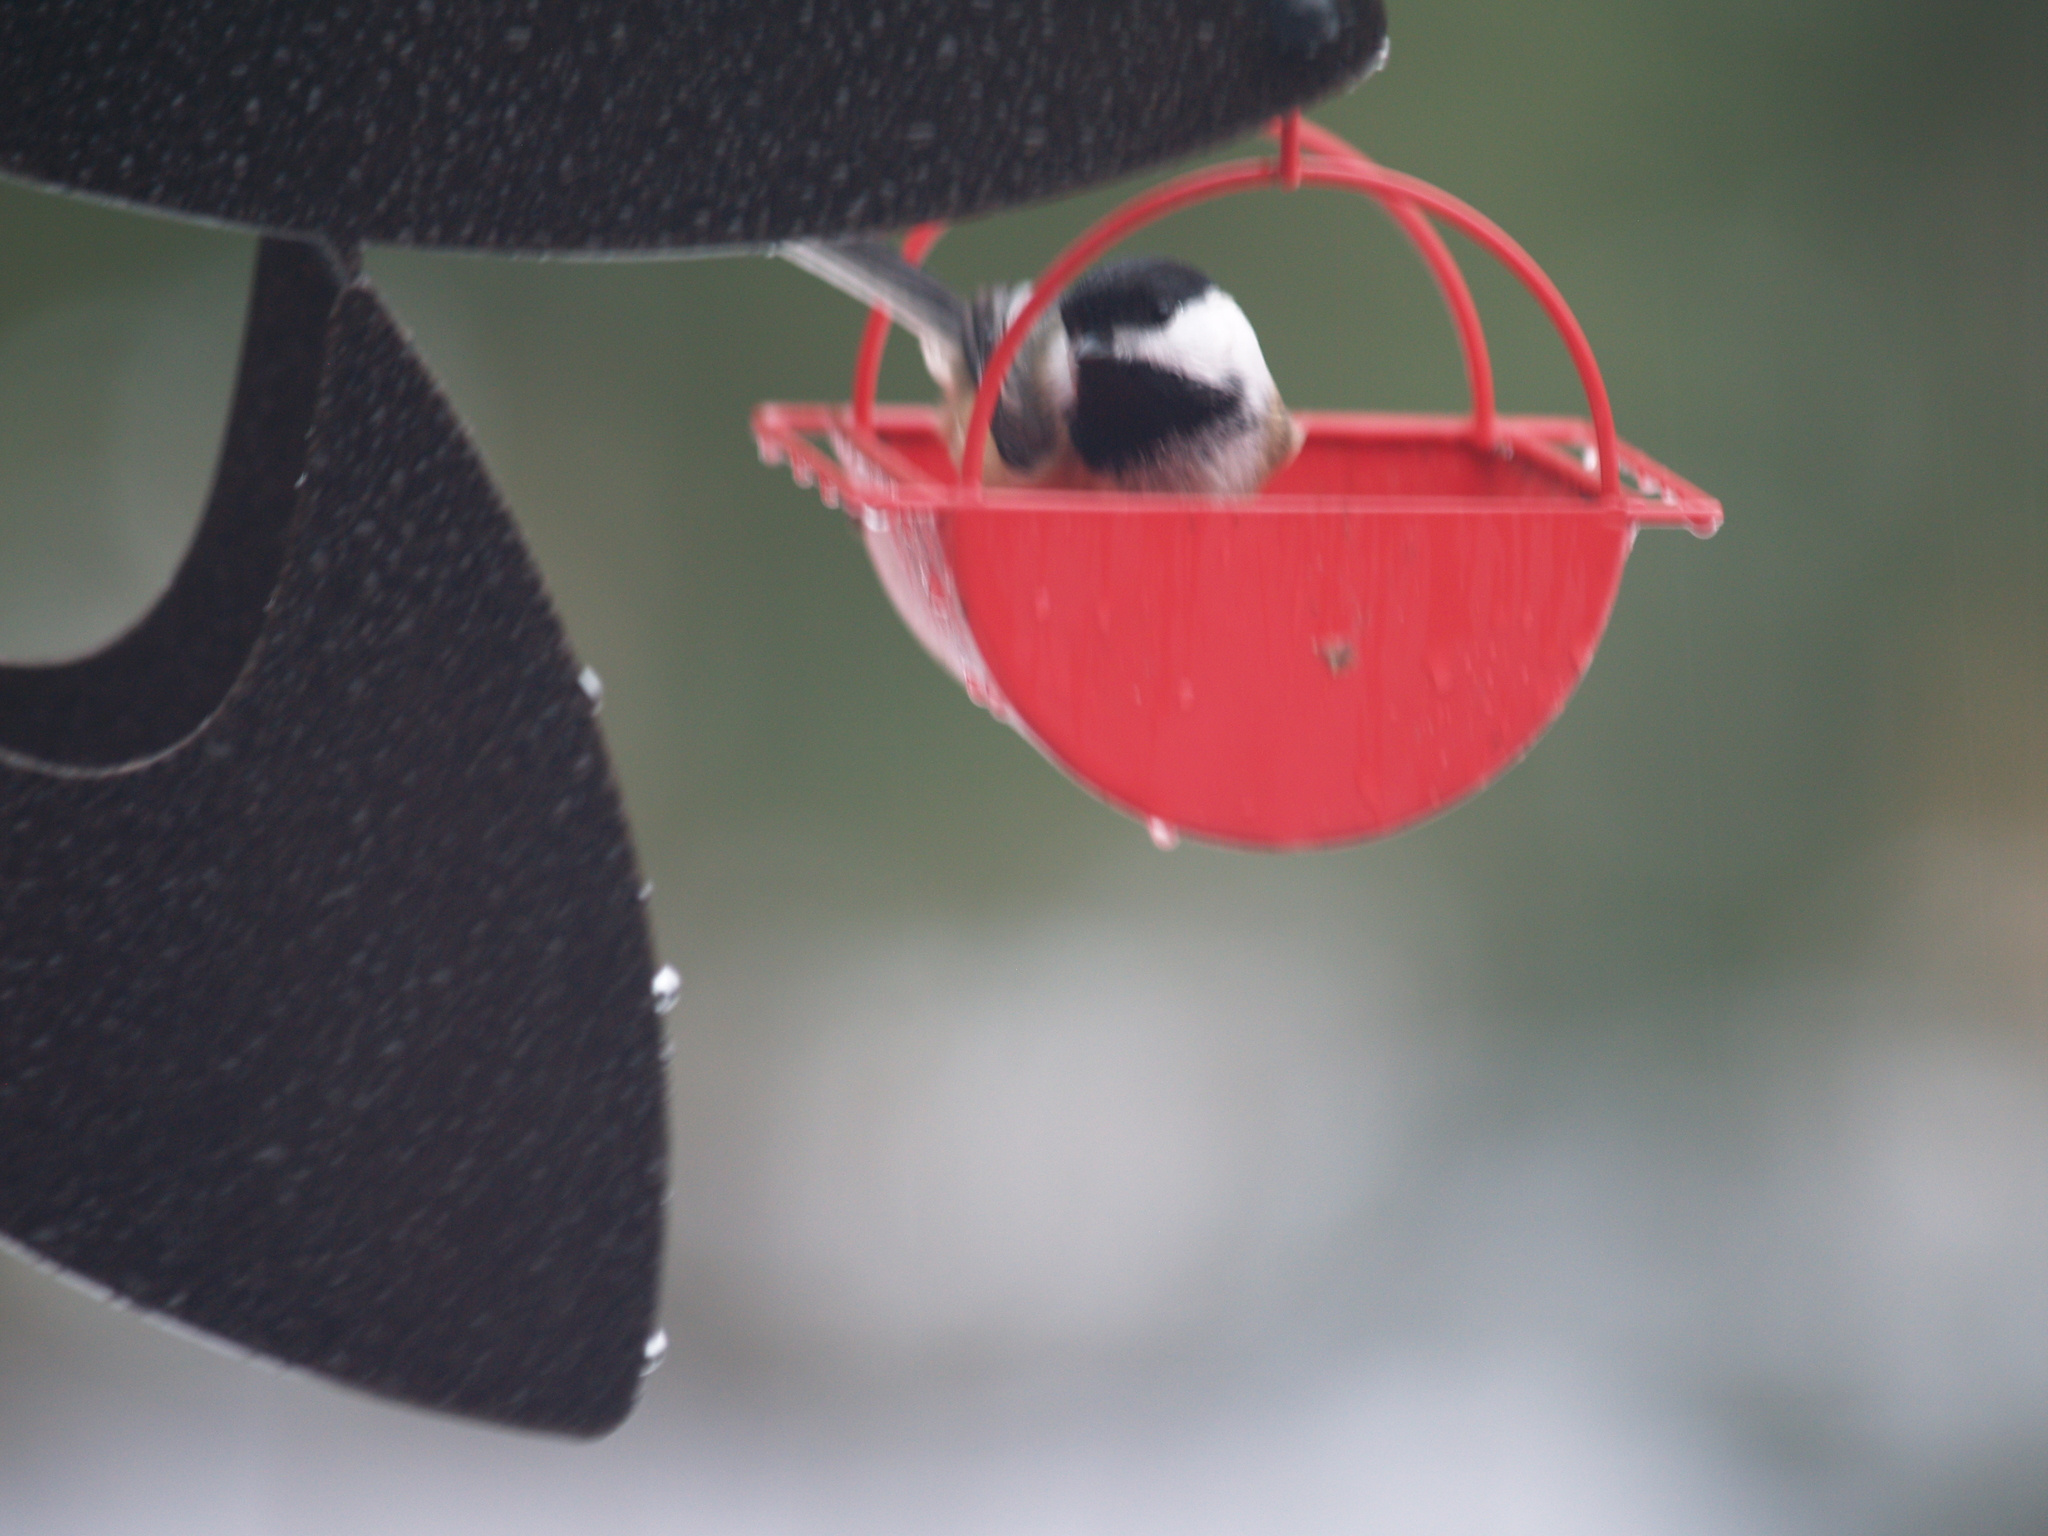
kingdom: Animalia
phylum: Chordata
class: Aves
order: Passeriformes
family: Paridae
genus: Poecile
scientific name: Poecile atricapillus
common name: Black-capped chickadee
